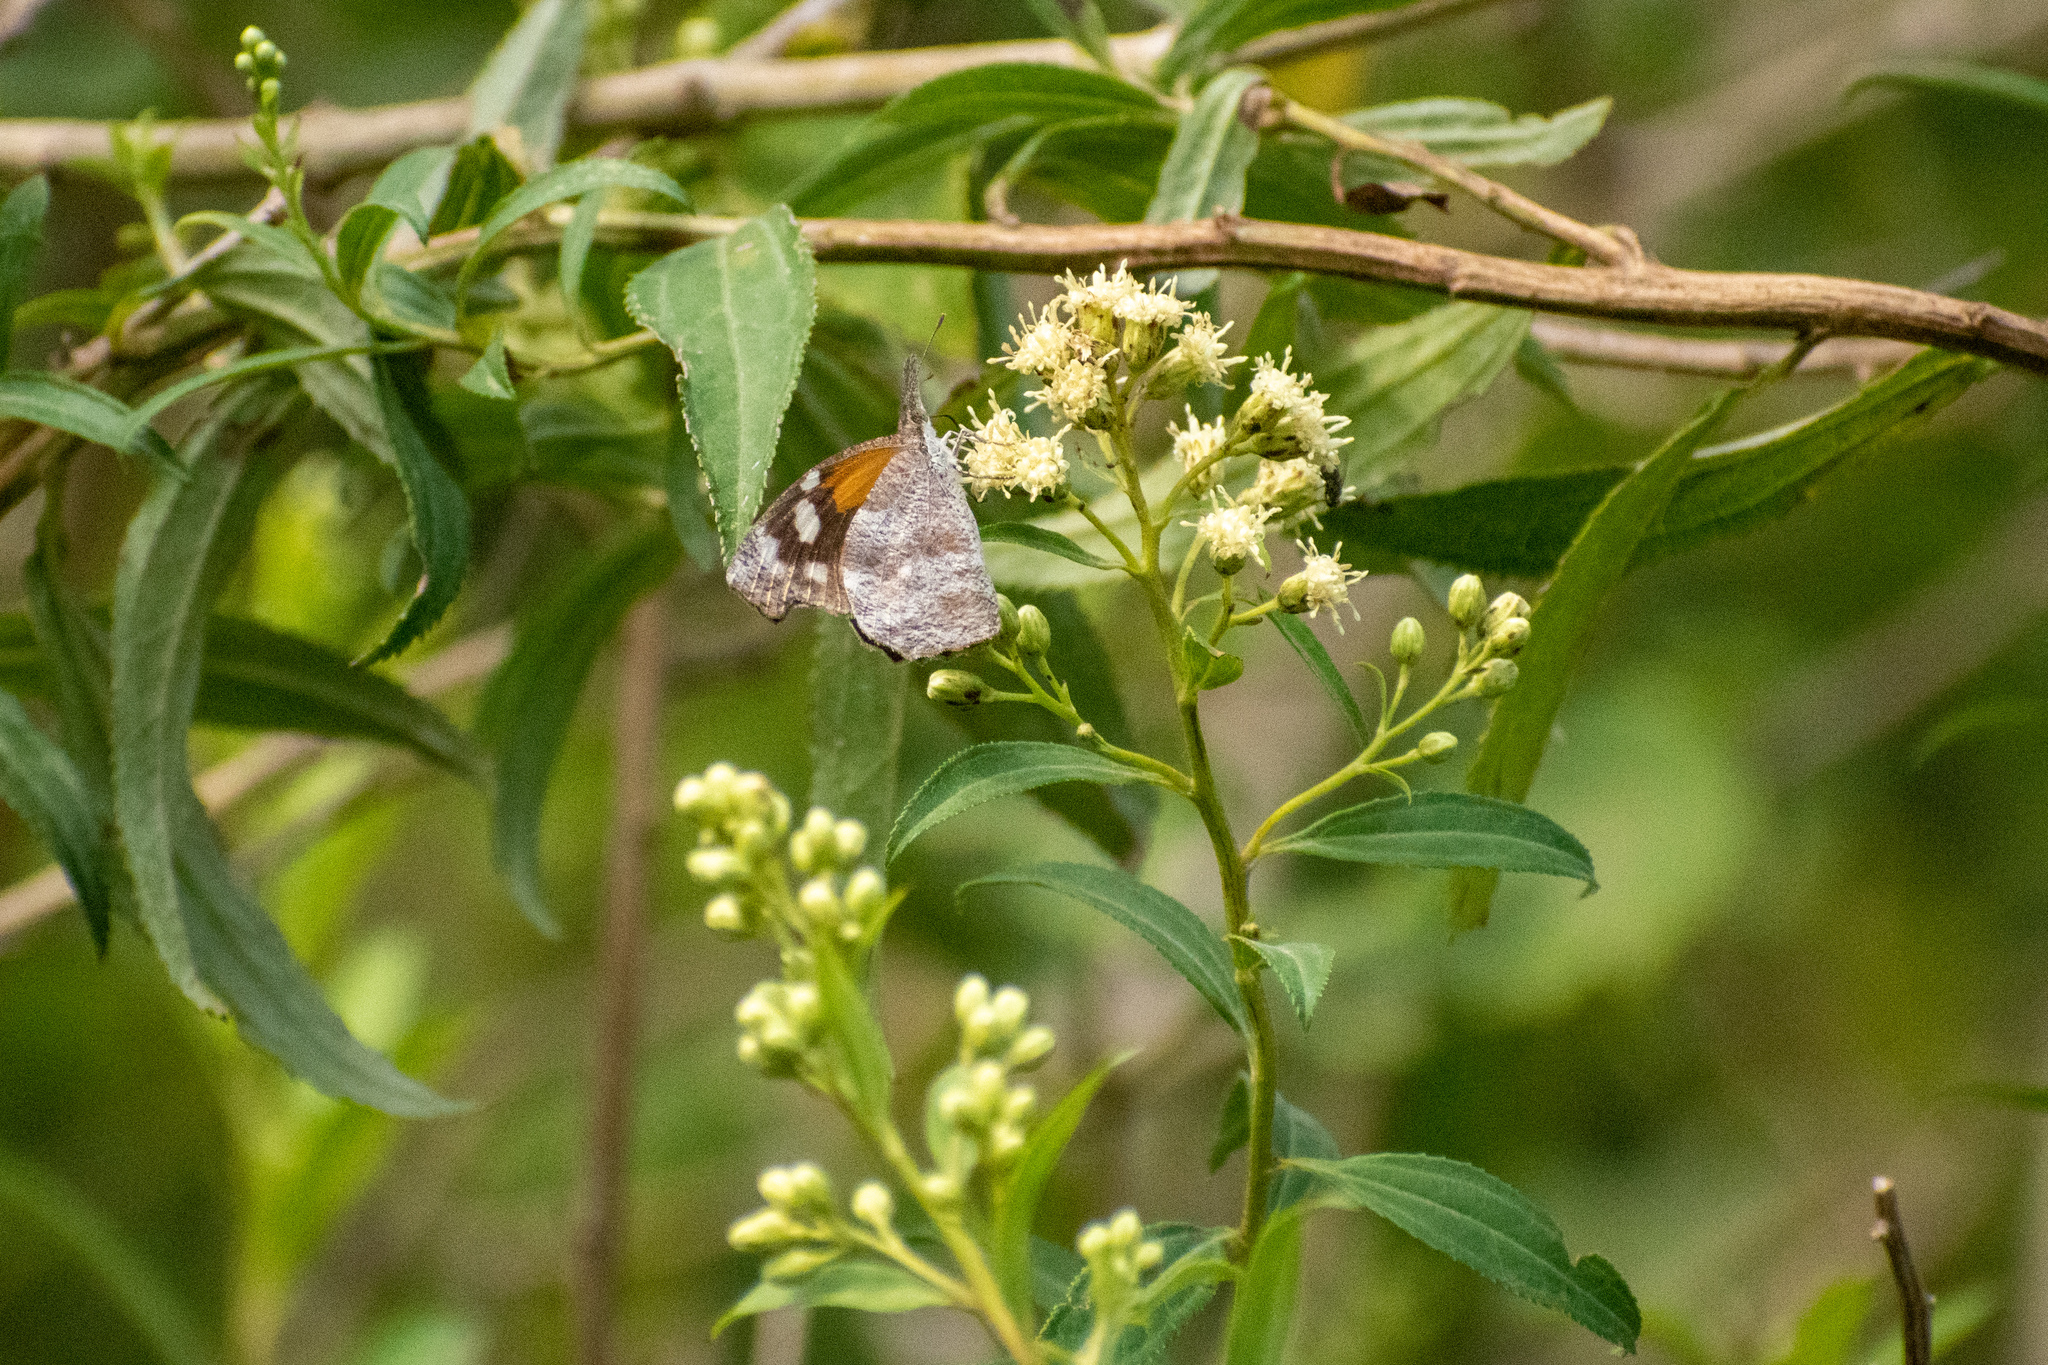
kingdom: Animalia
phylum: Arthropoda
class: Insecta
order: Lepidoptera
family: Nymphalidae
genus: Libytheana
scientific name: Libytheana carinenta
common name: American snout
